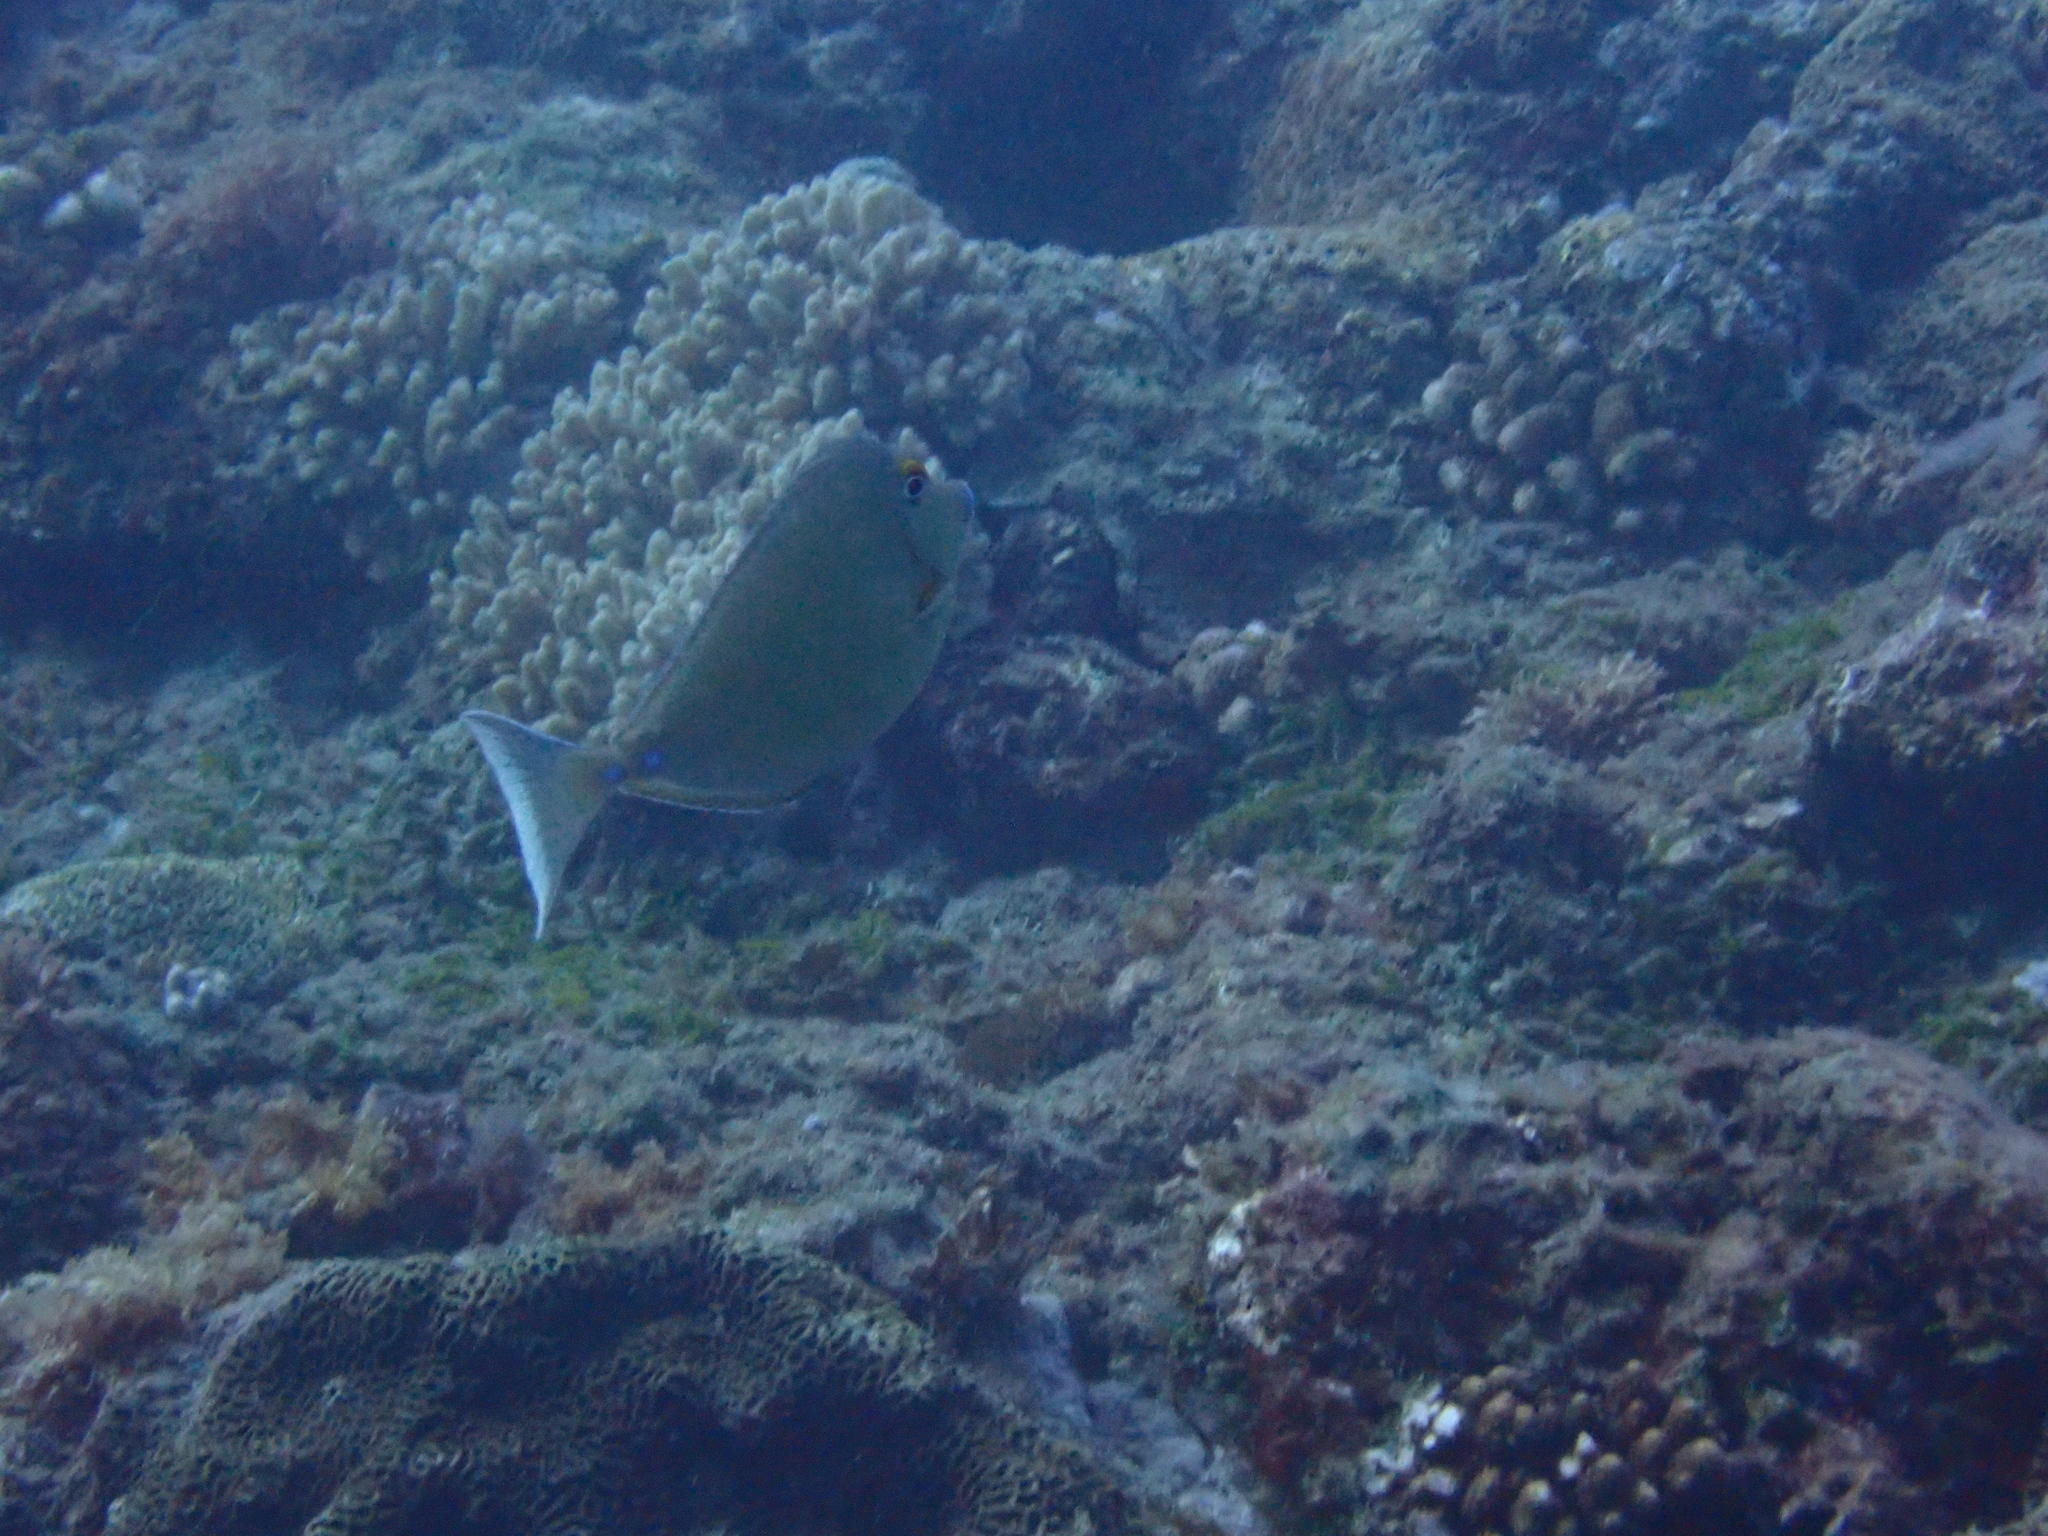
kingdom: Animalia
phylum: Chordata
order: Perciformes
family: Acanthuridae
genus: Naso
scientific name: Naso unicornis
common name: Bluespine unicornfish
